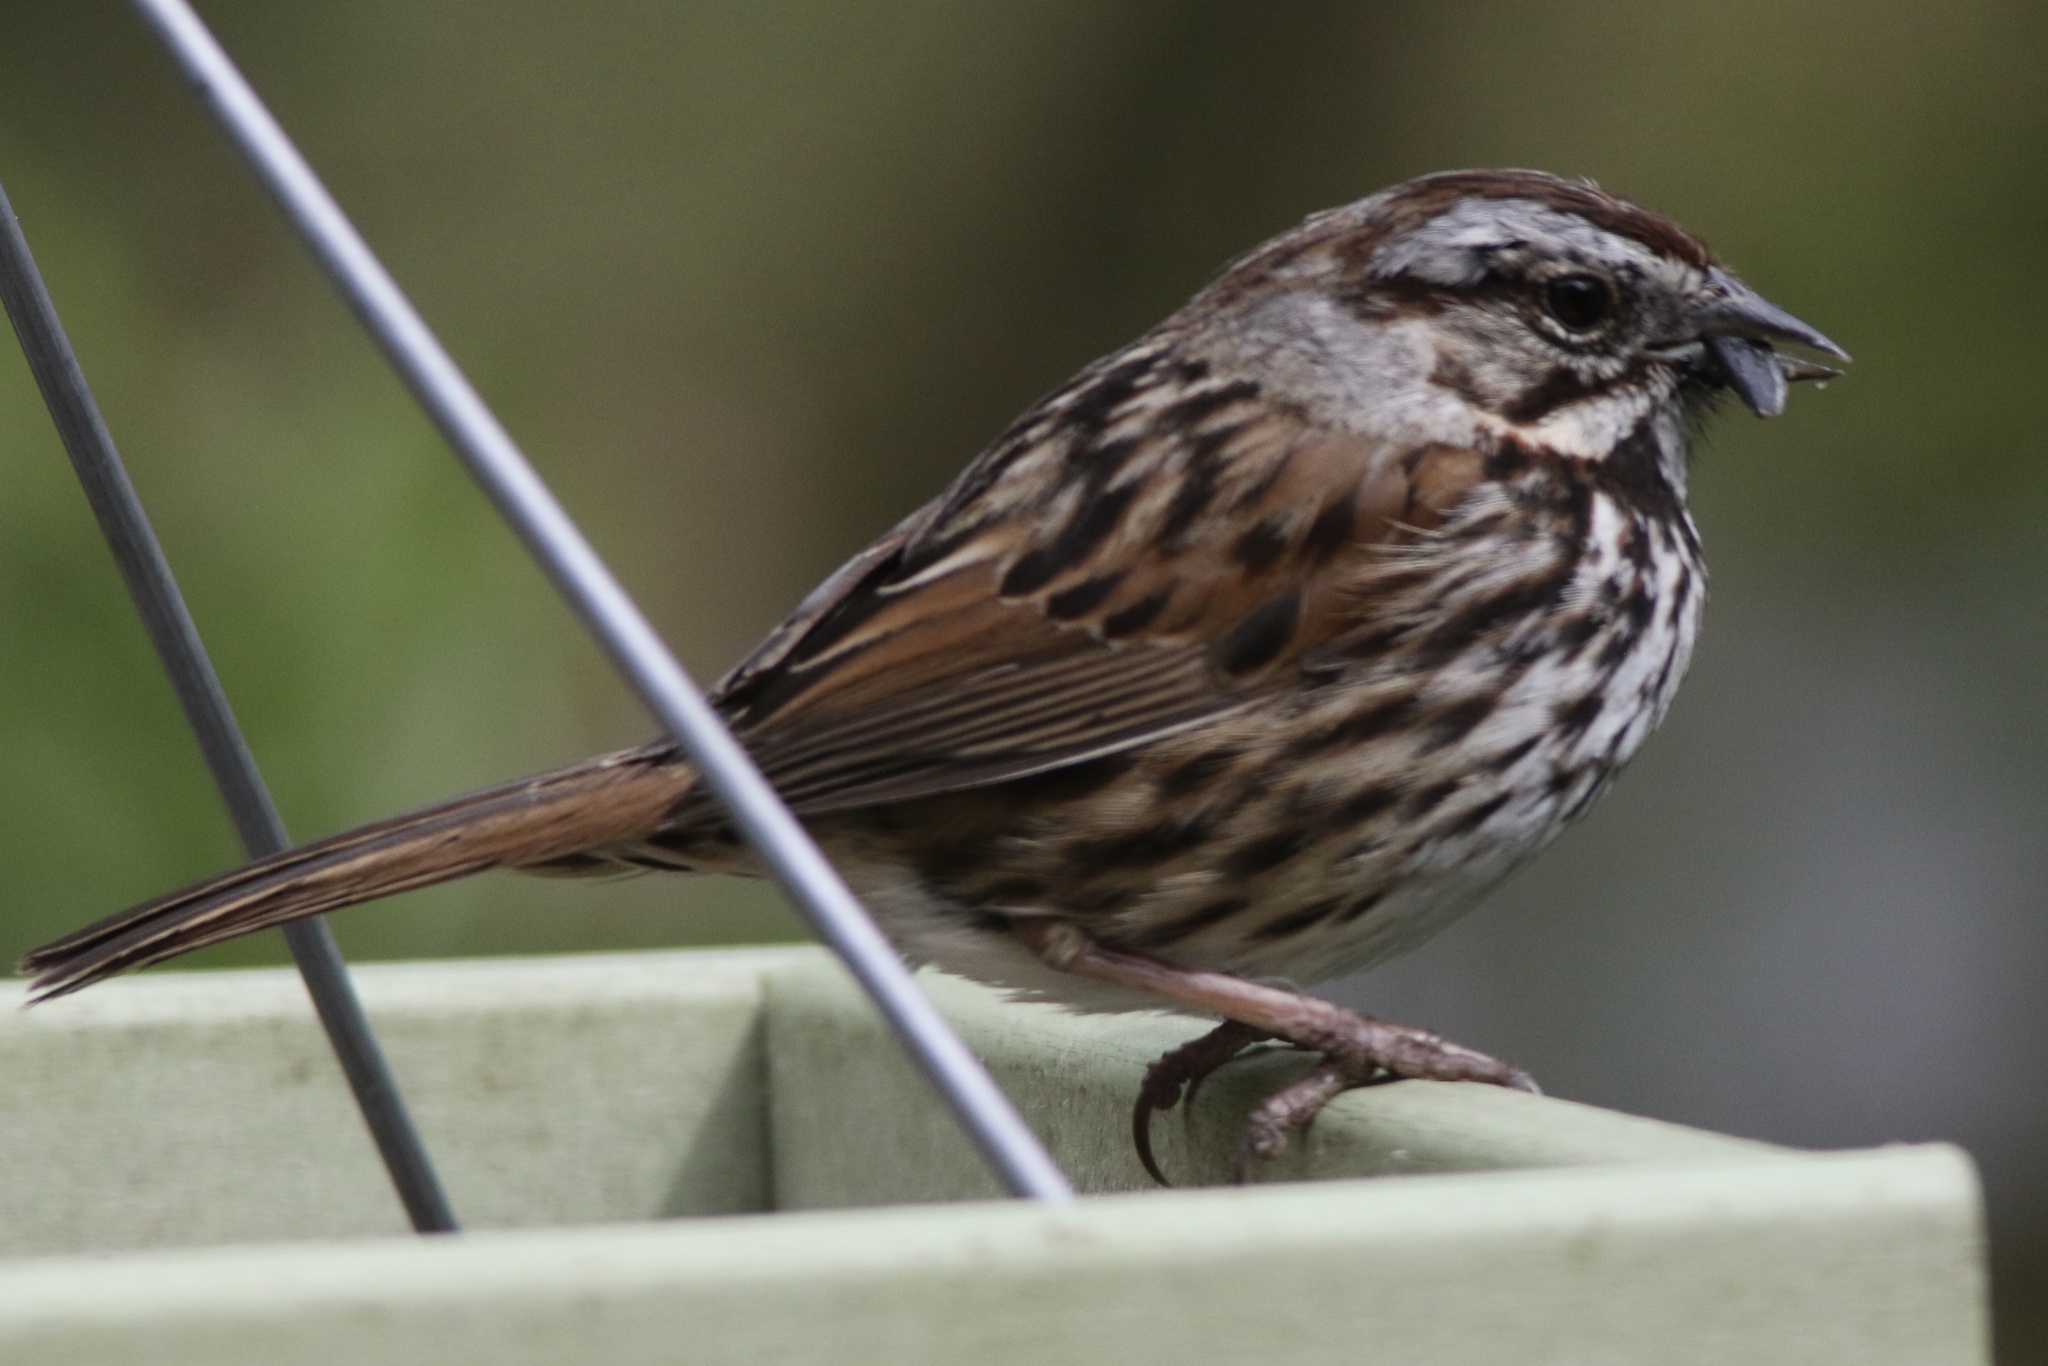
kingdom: Animalia
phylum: Chordata
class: Aves
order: Passeriformes
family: Passerellidae
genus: Melospiza
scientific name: Melospiza melodia
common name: Song sparrow
